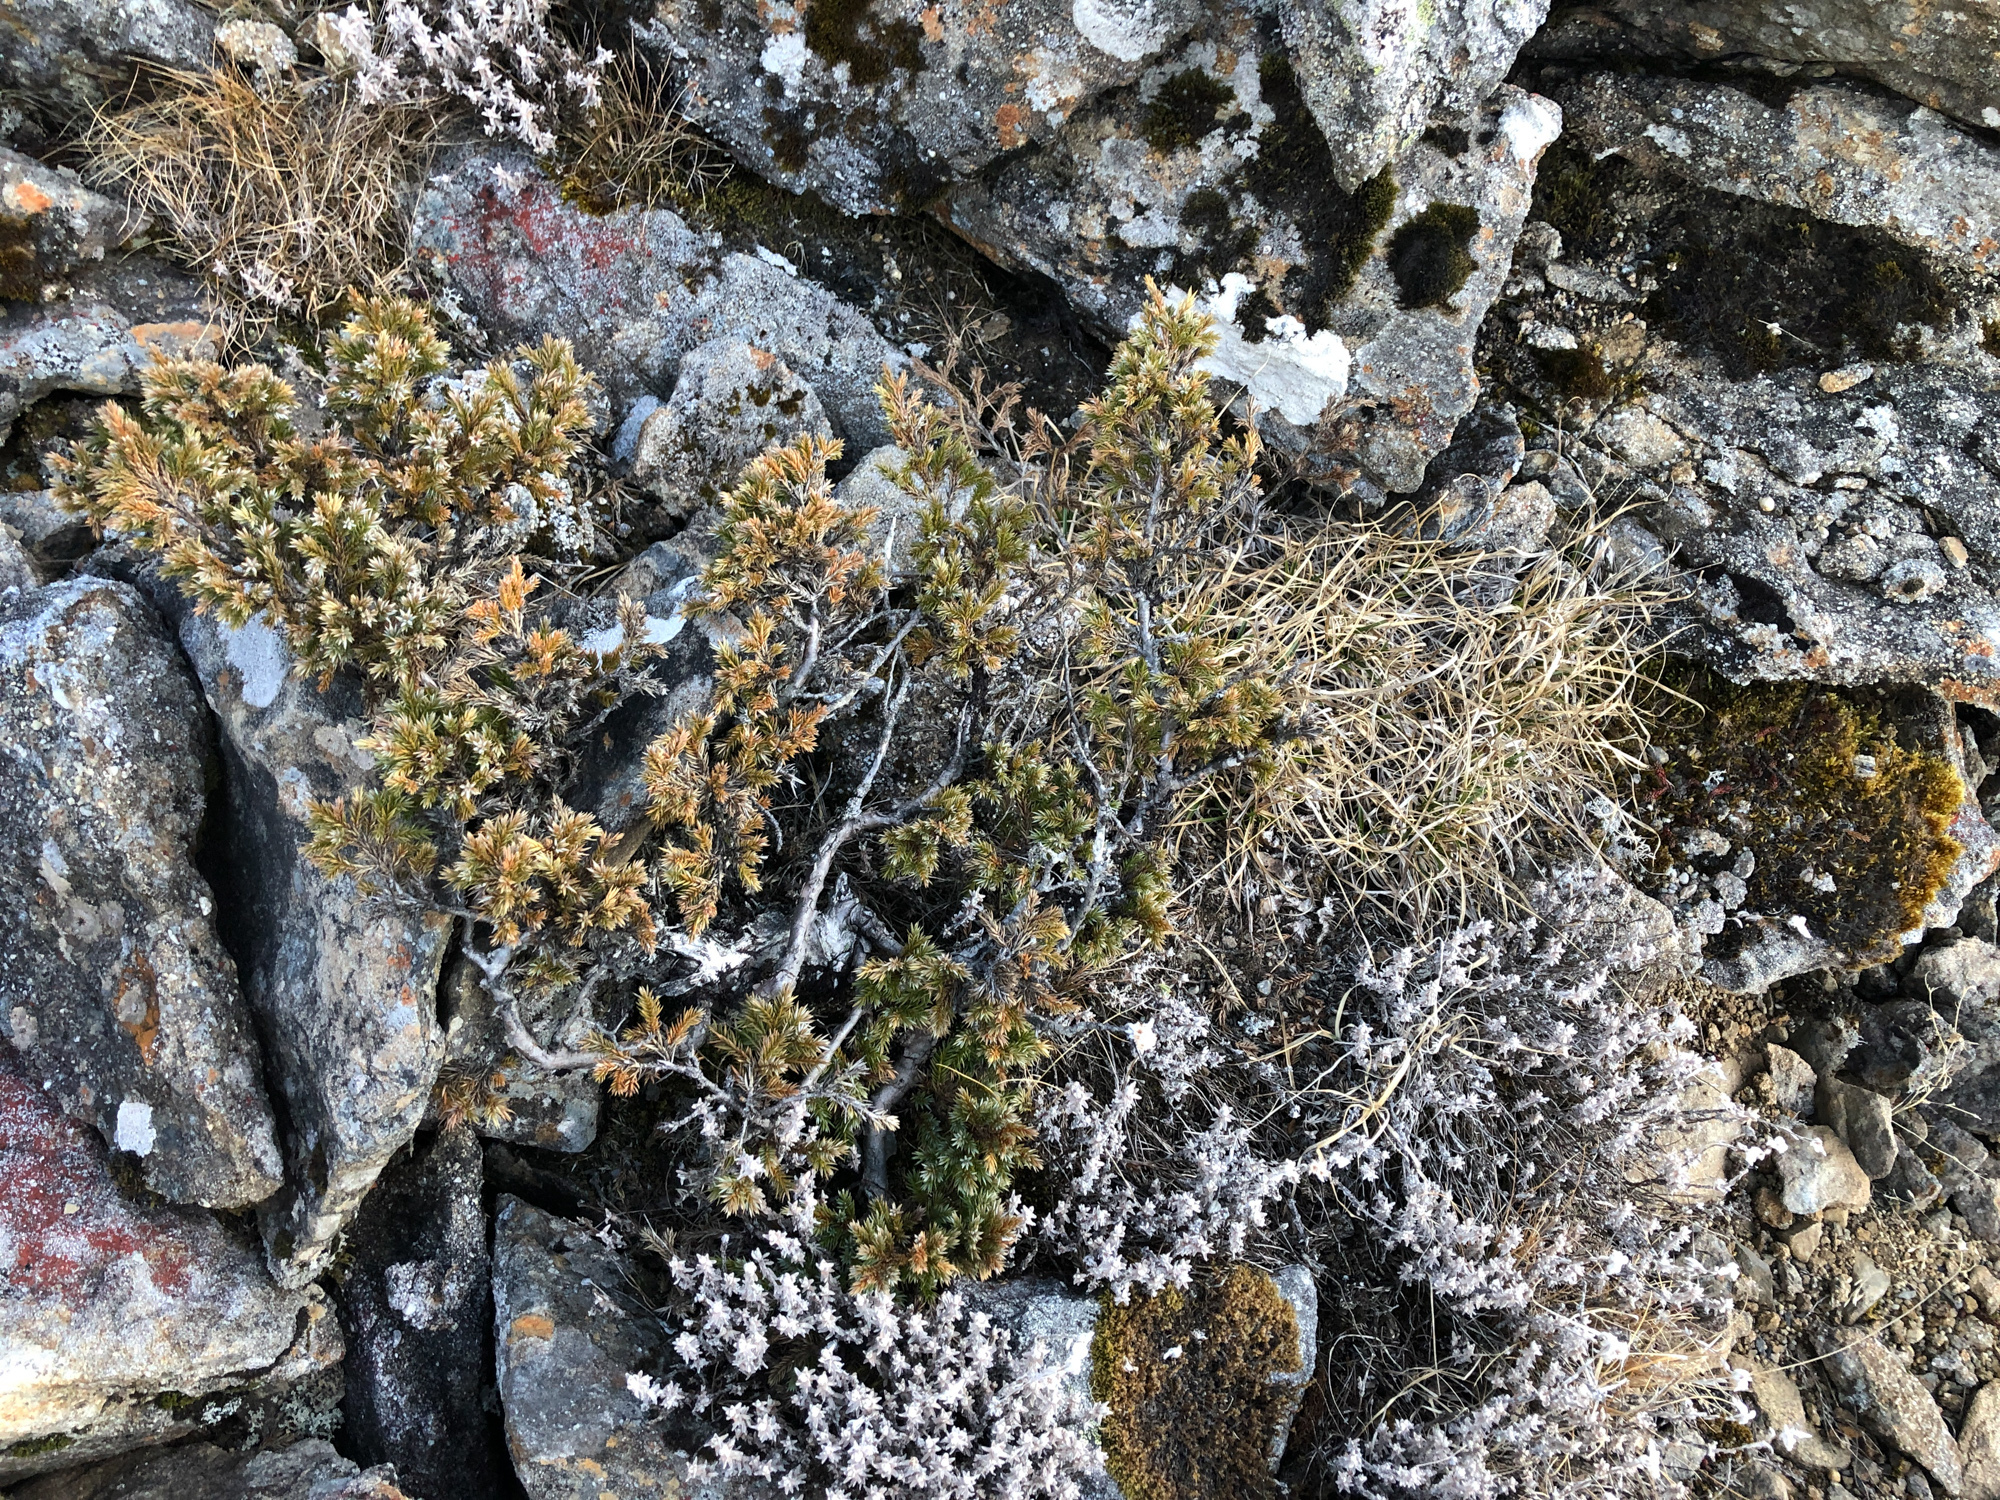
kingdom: Plantae
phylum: Tracheophyta
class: Pinopsida
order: Pinales
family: Cupressaceae
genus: Juniperus
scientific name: Juniperus squamata
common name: Flaky juniper
